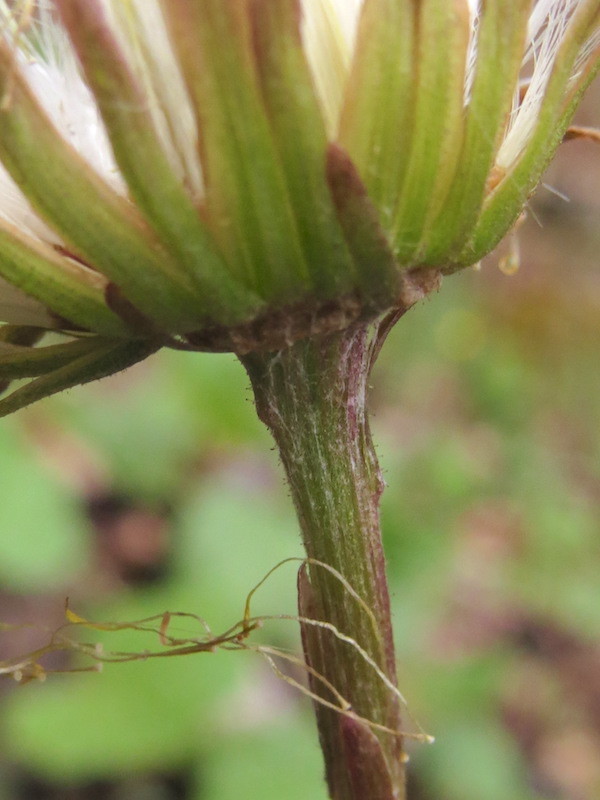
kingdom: Plantae
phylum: Tracheophyta
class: Magnoliopsida
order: Asterales
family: Asteraceae
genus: Tussilago
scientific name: Tussilago farfara
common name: Coltsfoot
